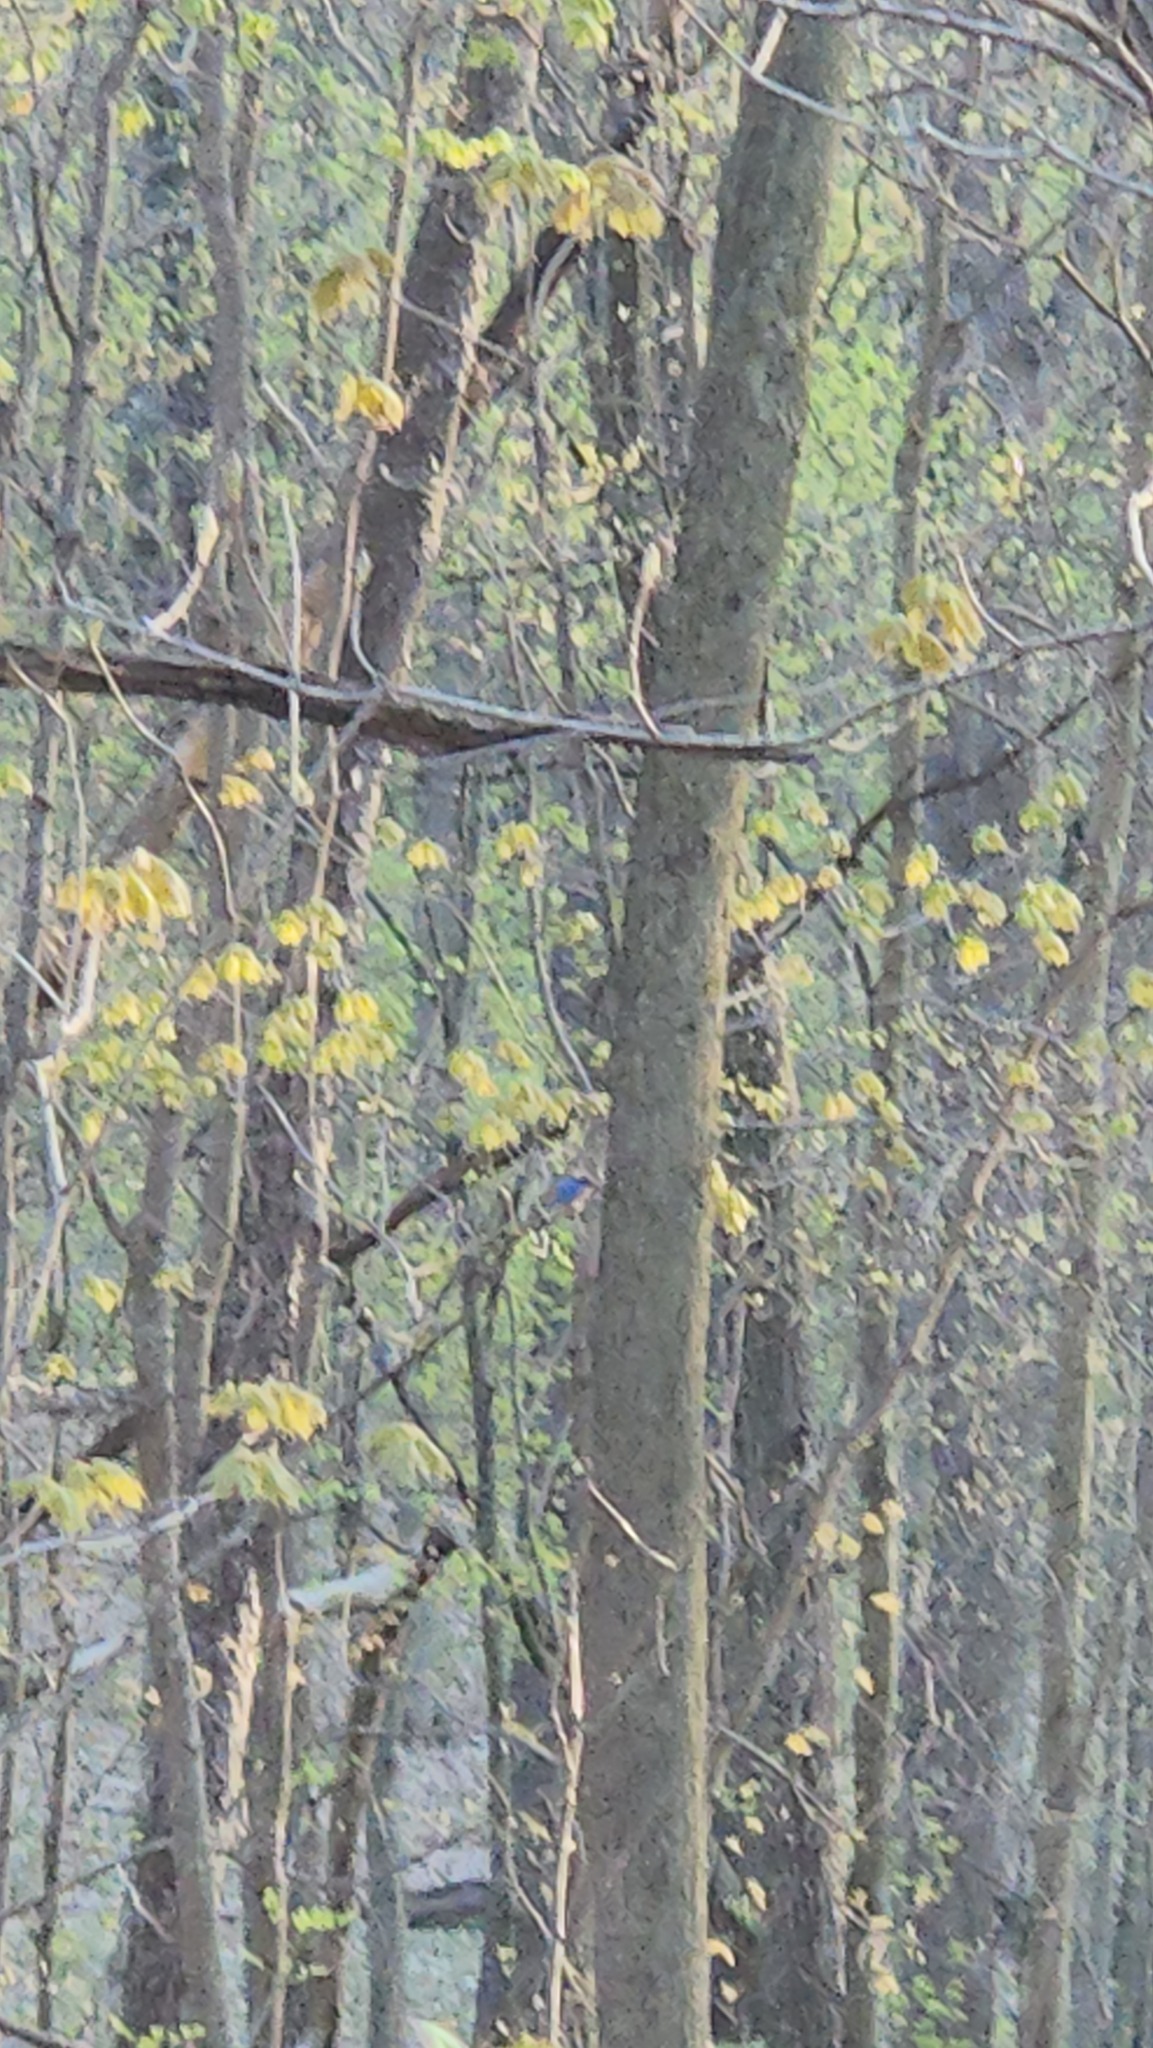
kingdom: Animalia
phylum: Chordata
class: Aves
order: Passeriformes
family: Turdidae
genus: Sialia
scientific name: Sialia sialis
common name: Eastern bluebird
